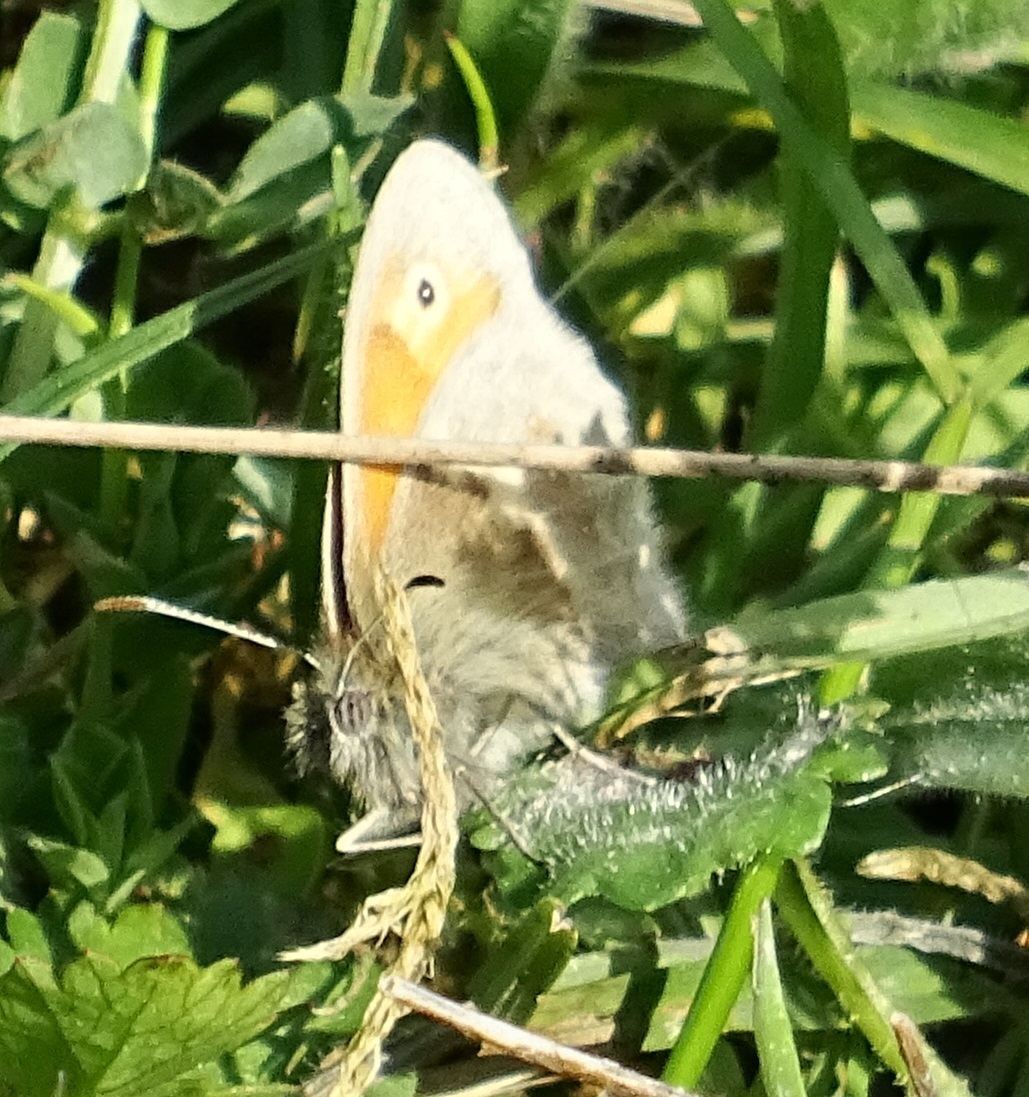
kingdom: Animalia
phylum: Arthropoda
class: Insecta
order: Lepidoptera
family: Nymphalidae
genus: Coenonympha
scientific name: Coenonympha pamphilus
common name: Small heath
